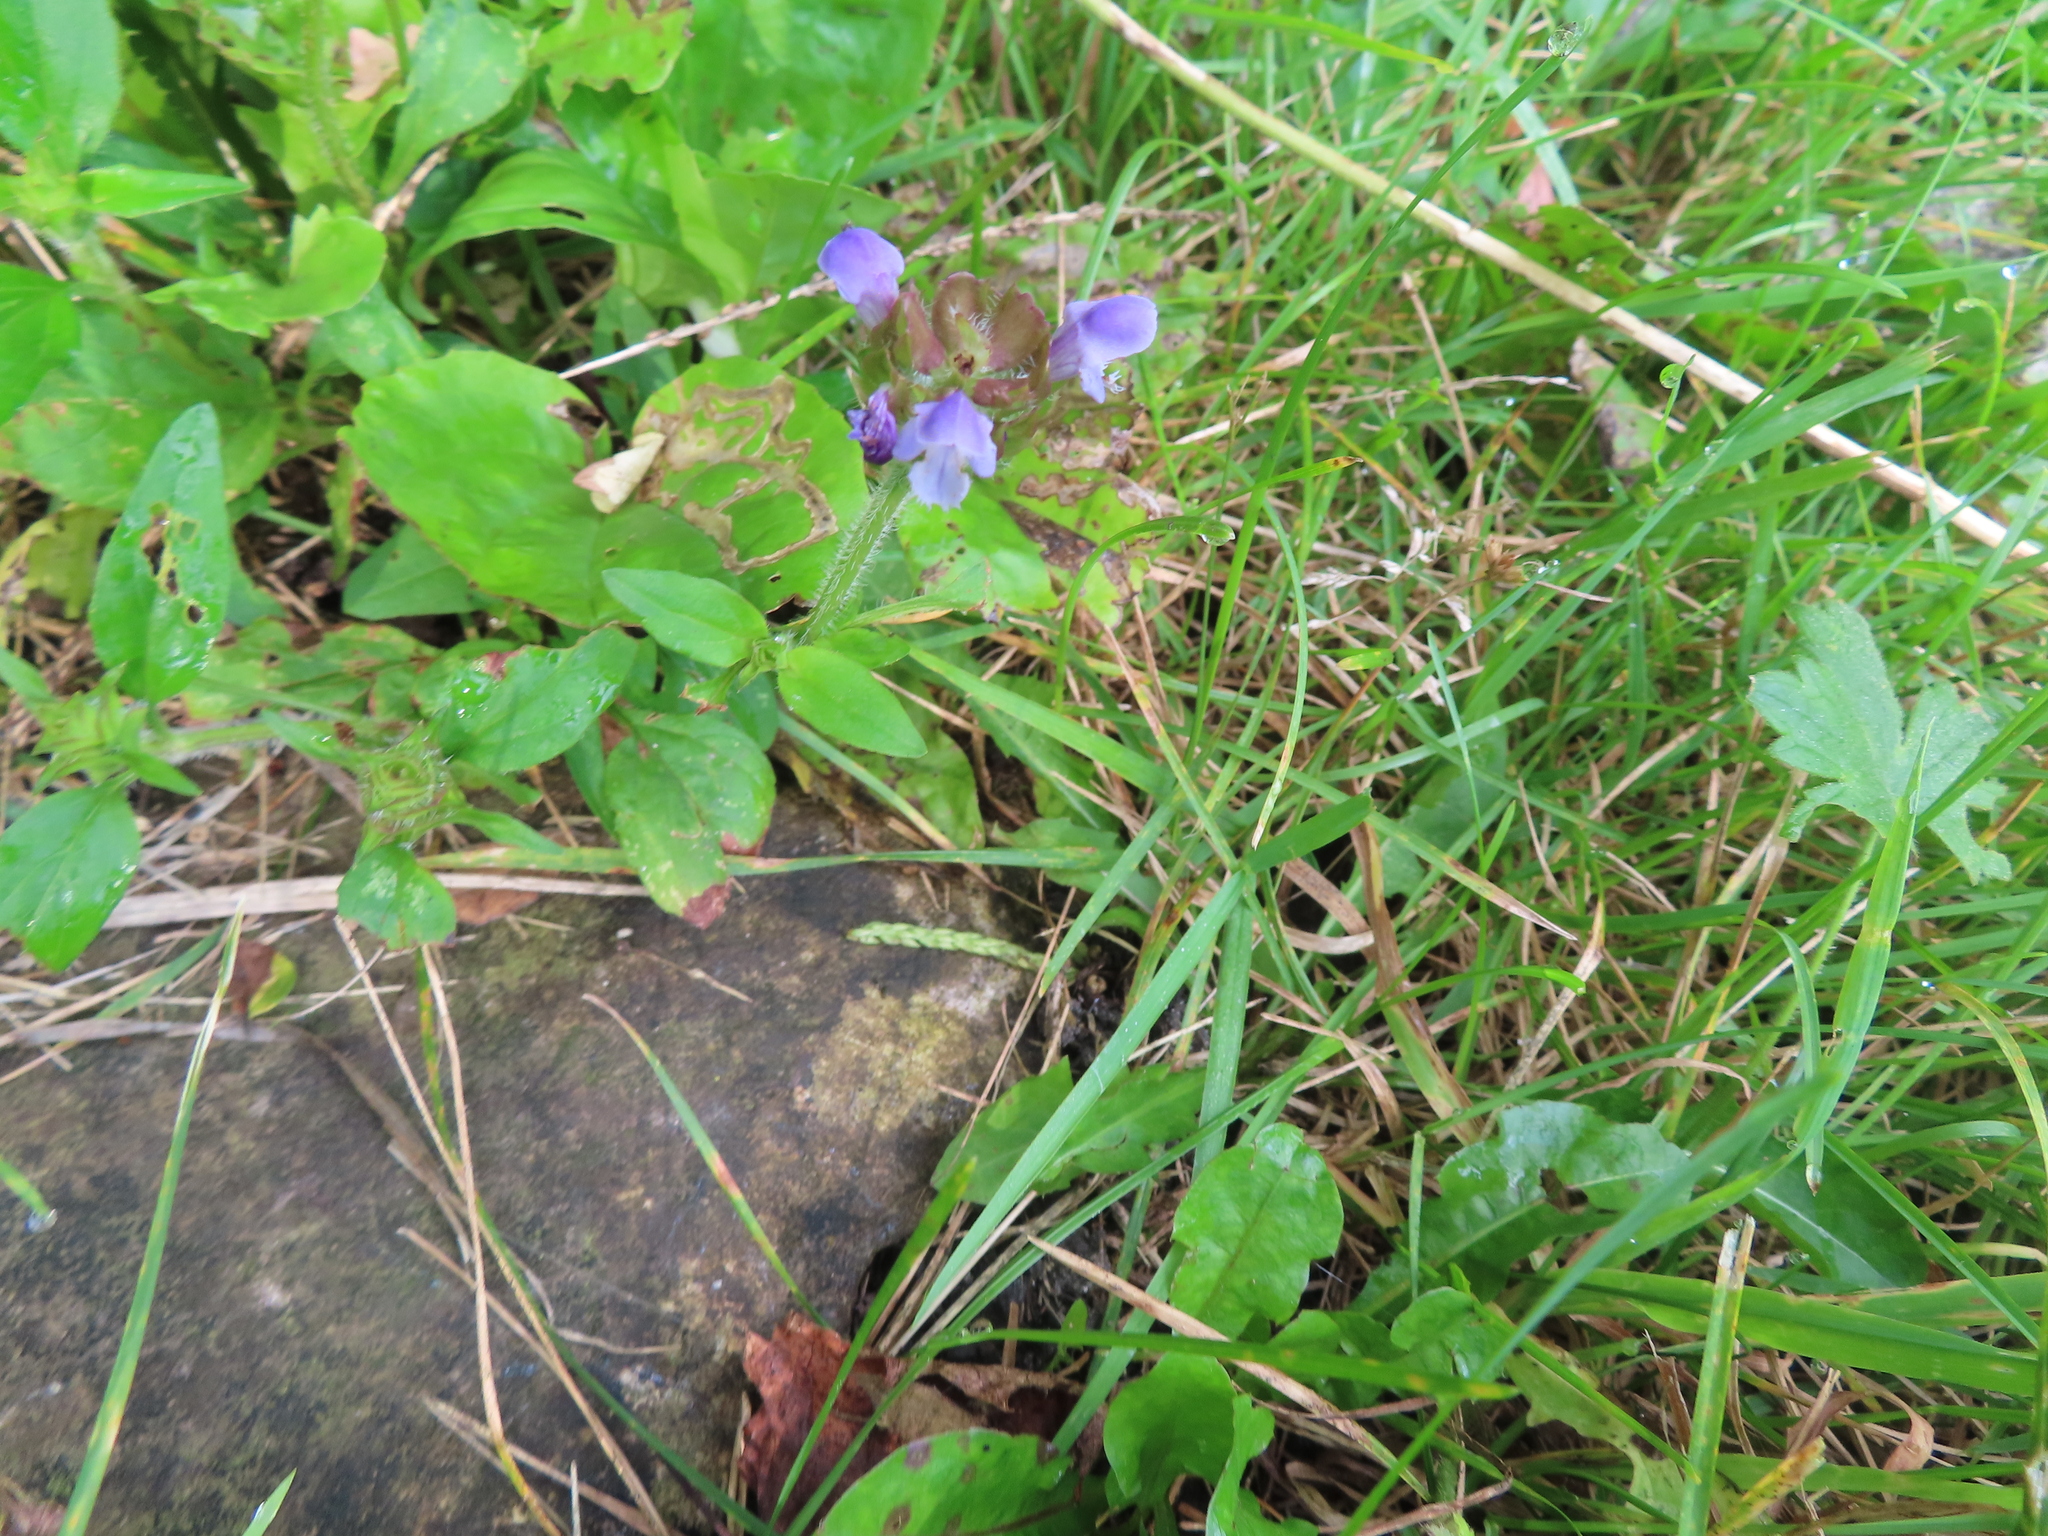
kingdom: Plantae
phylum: Tracheophyta
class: Magnoliopsida
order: Lamiales
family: Lamiaceae
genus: Prunella
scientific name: Prunella vulgaris
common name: Heal-all
